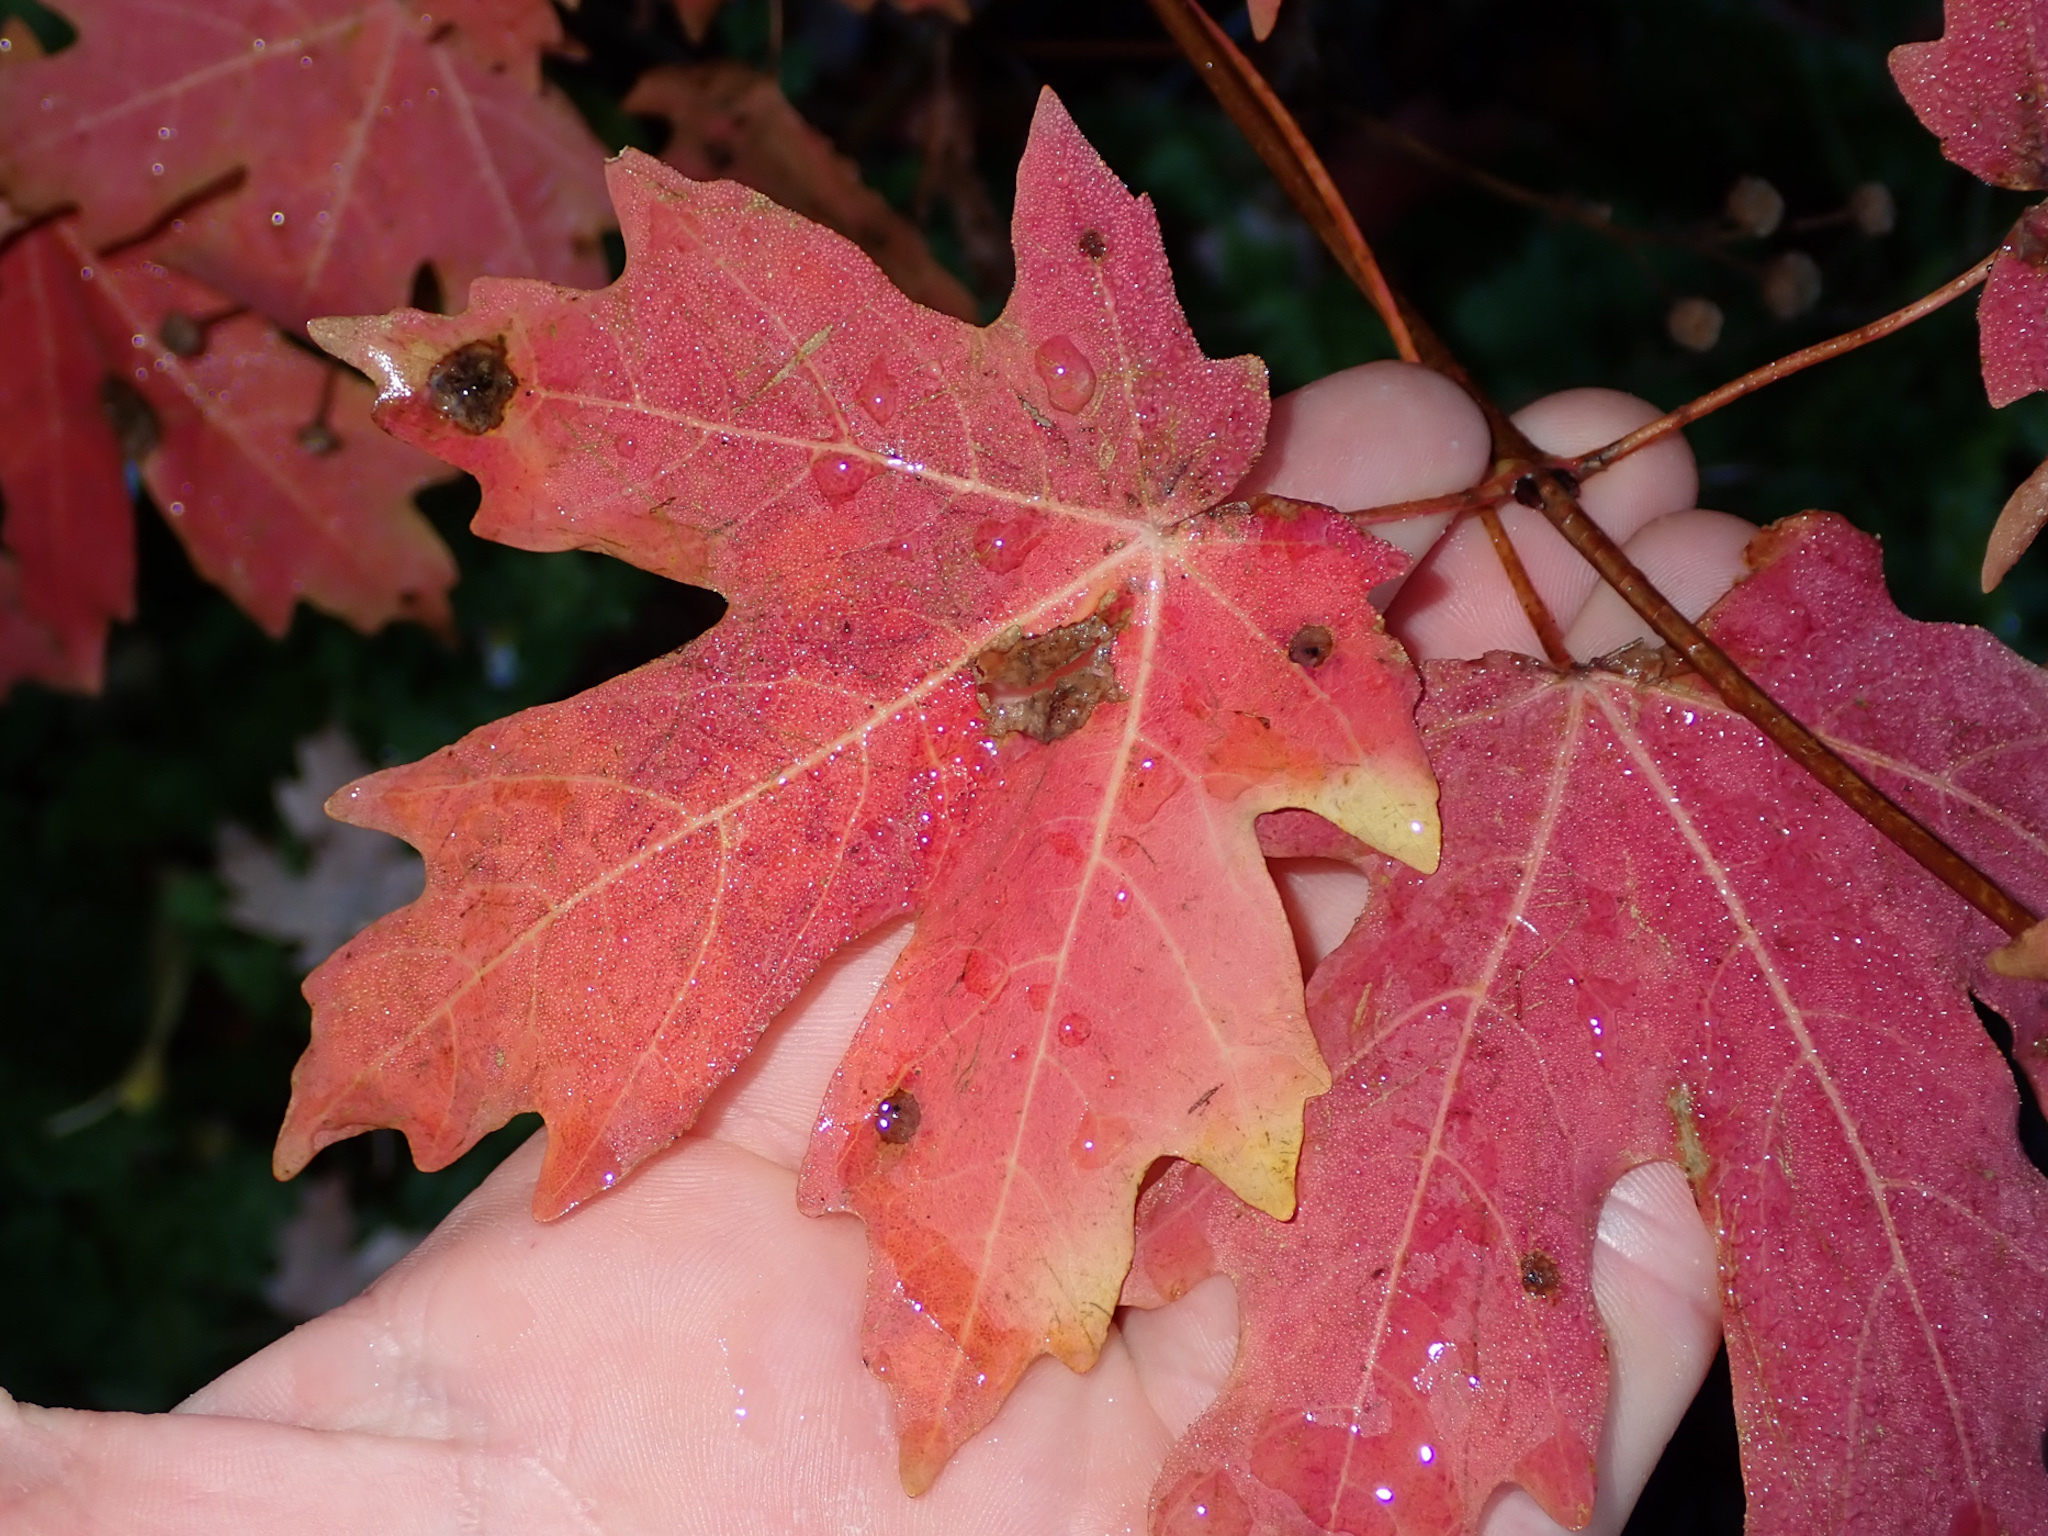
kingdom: Plantae
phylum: Tracheophyta
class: Magnoliopsida
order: Sapindales
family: Sapindaceae
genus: Acer
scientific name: Acer grandidentatum
